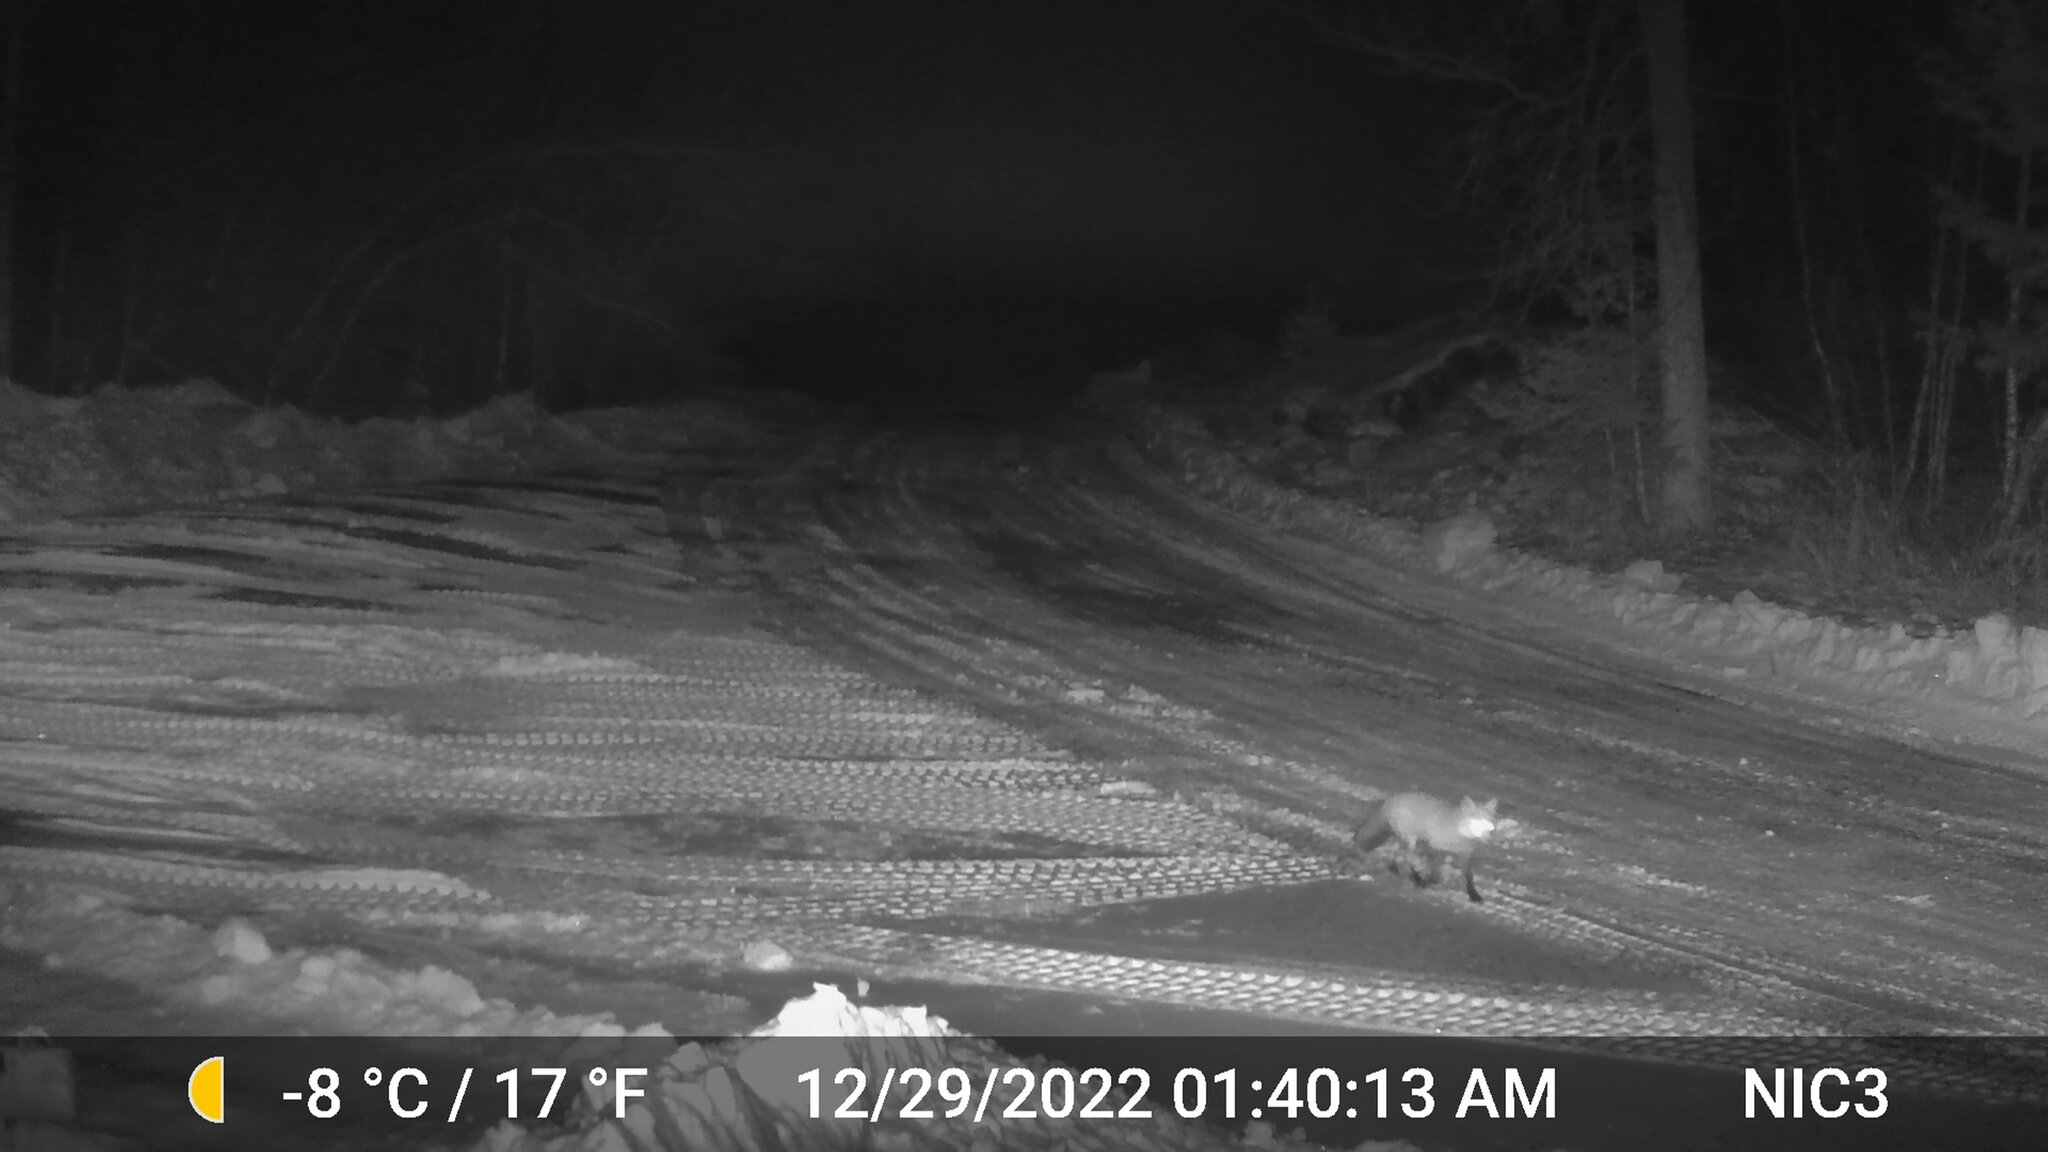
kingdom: Animalia
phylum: Chordata
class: Mammalia
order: Carnivora
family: Canidae
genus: Vulpes
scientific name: Vulpes vulpes
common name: Red fox
